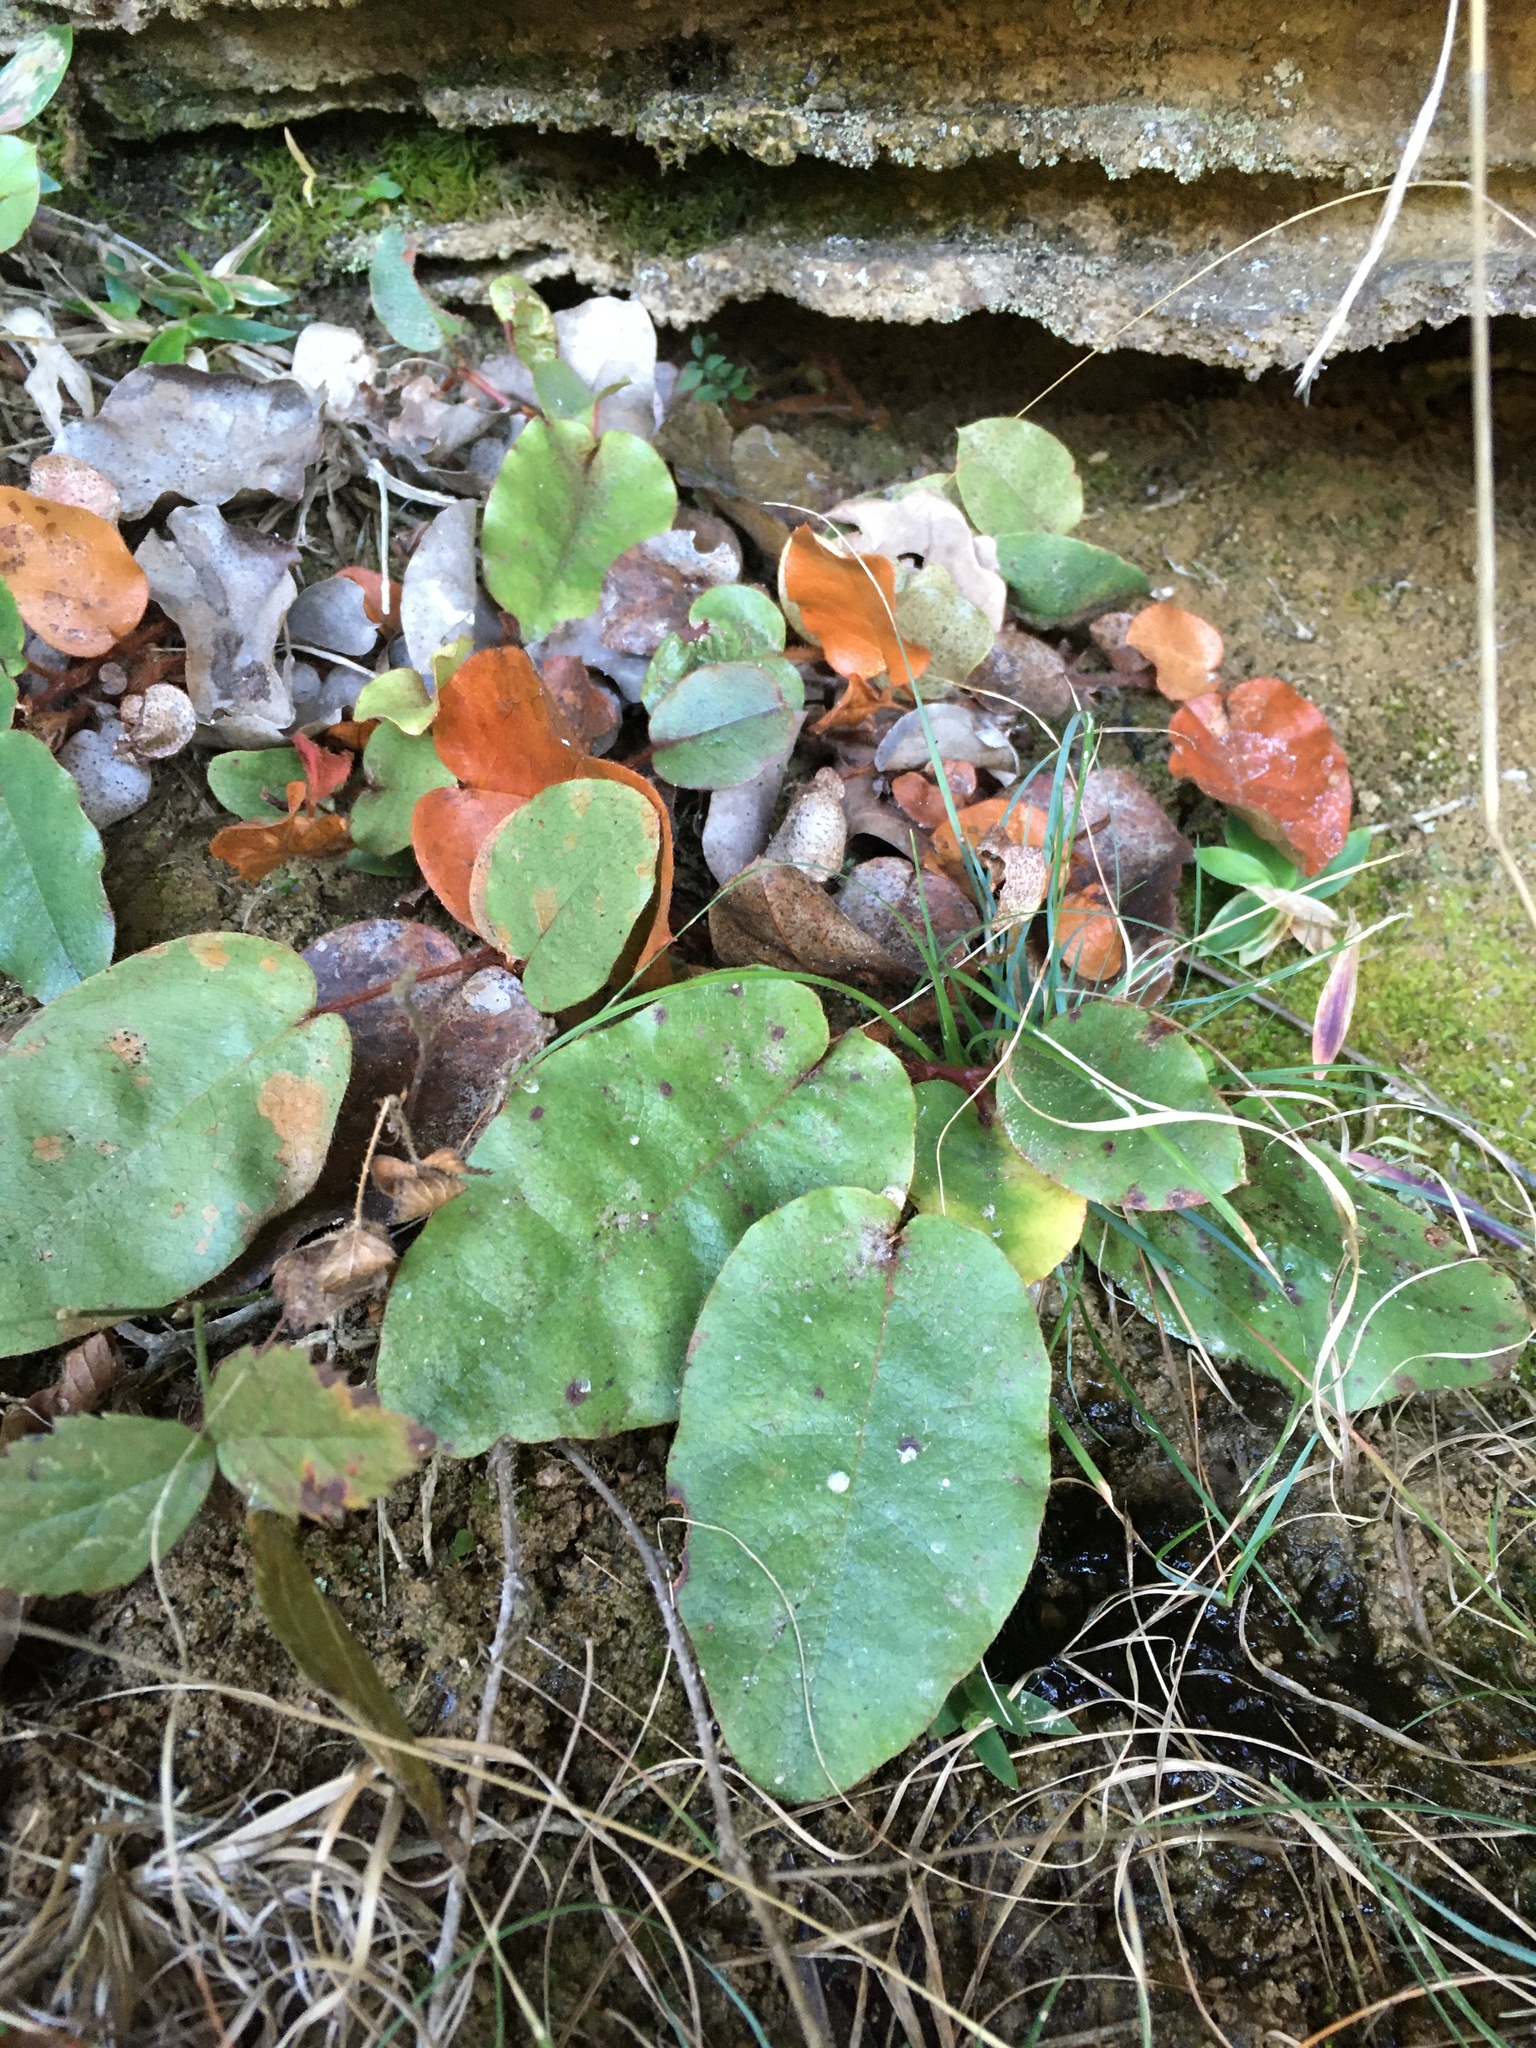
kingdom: Plantae
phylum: Tracheophyta
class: Magnoliopsida
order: Ericales
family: Ericaceae
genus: Epigaea
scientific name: Epigaea repens
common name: Gravelroot
